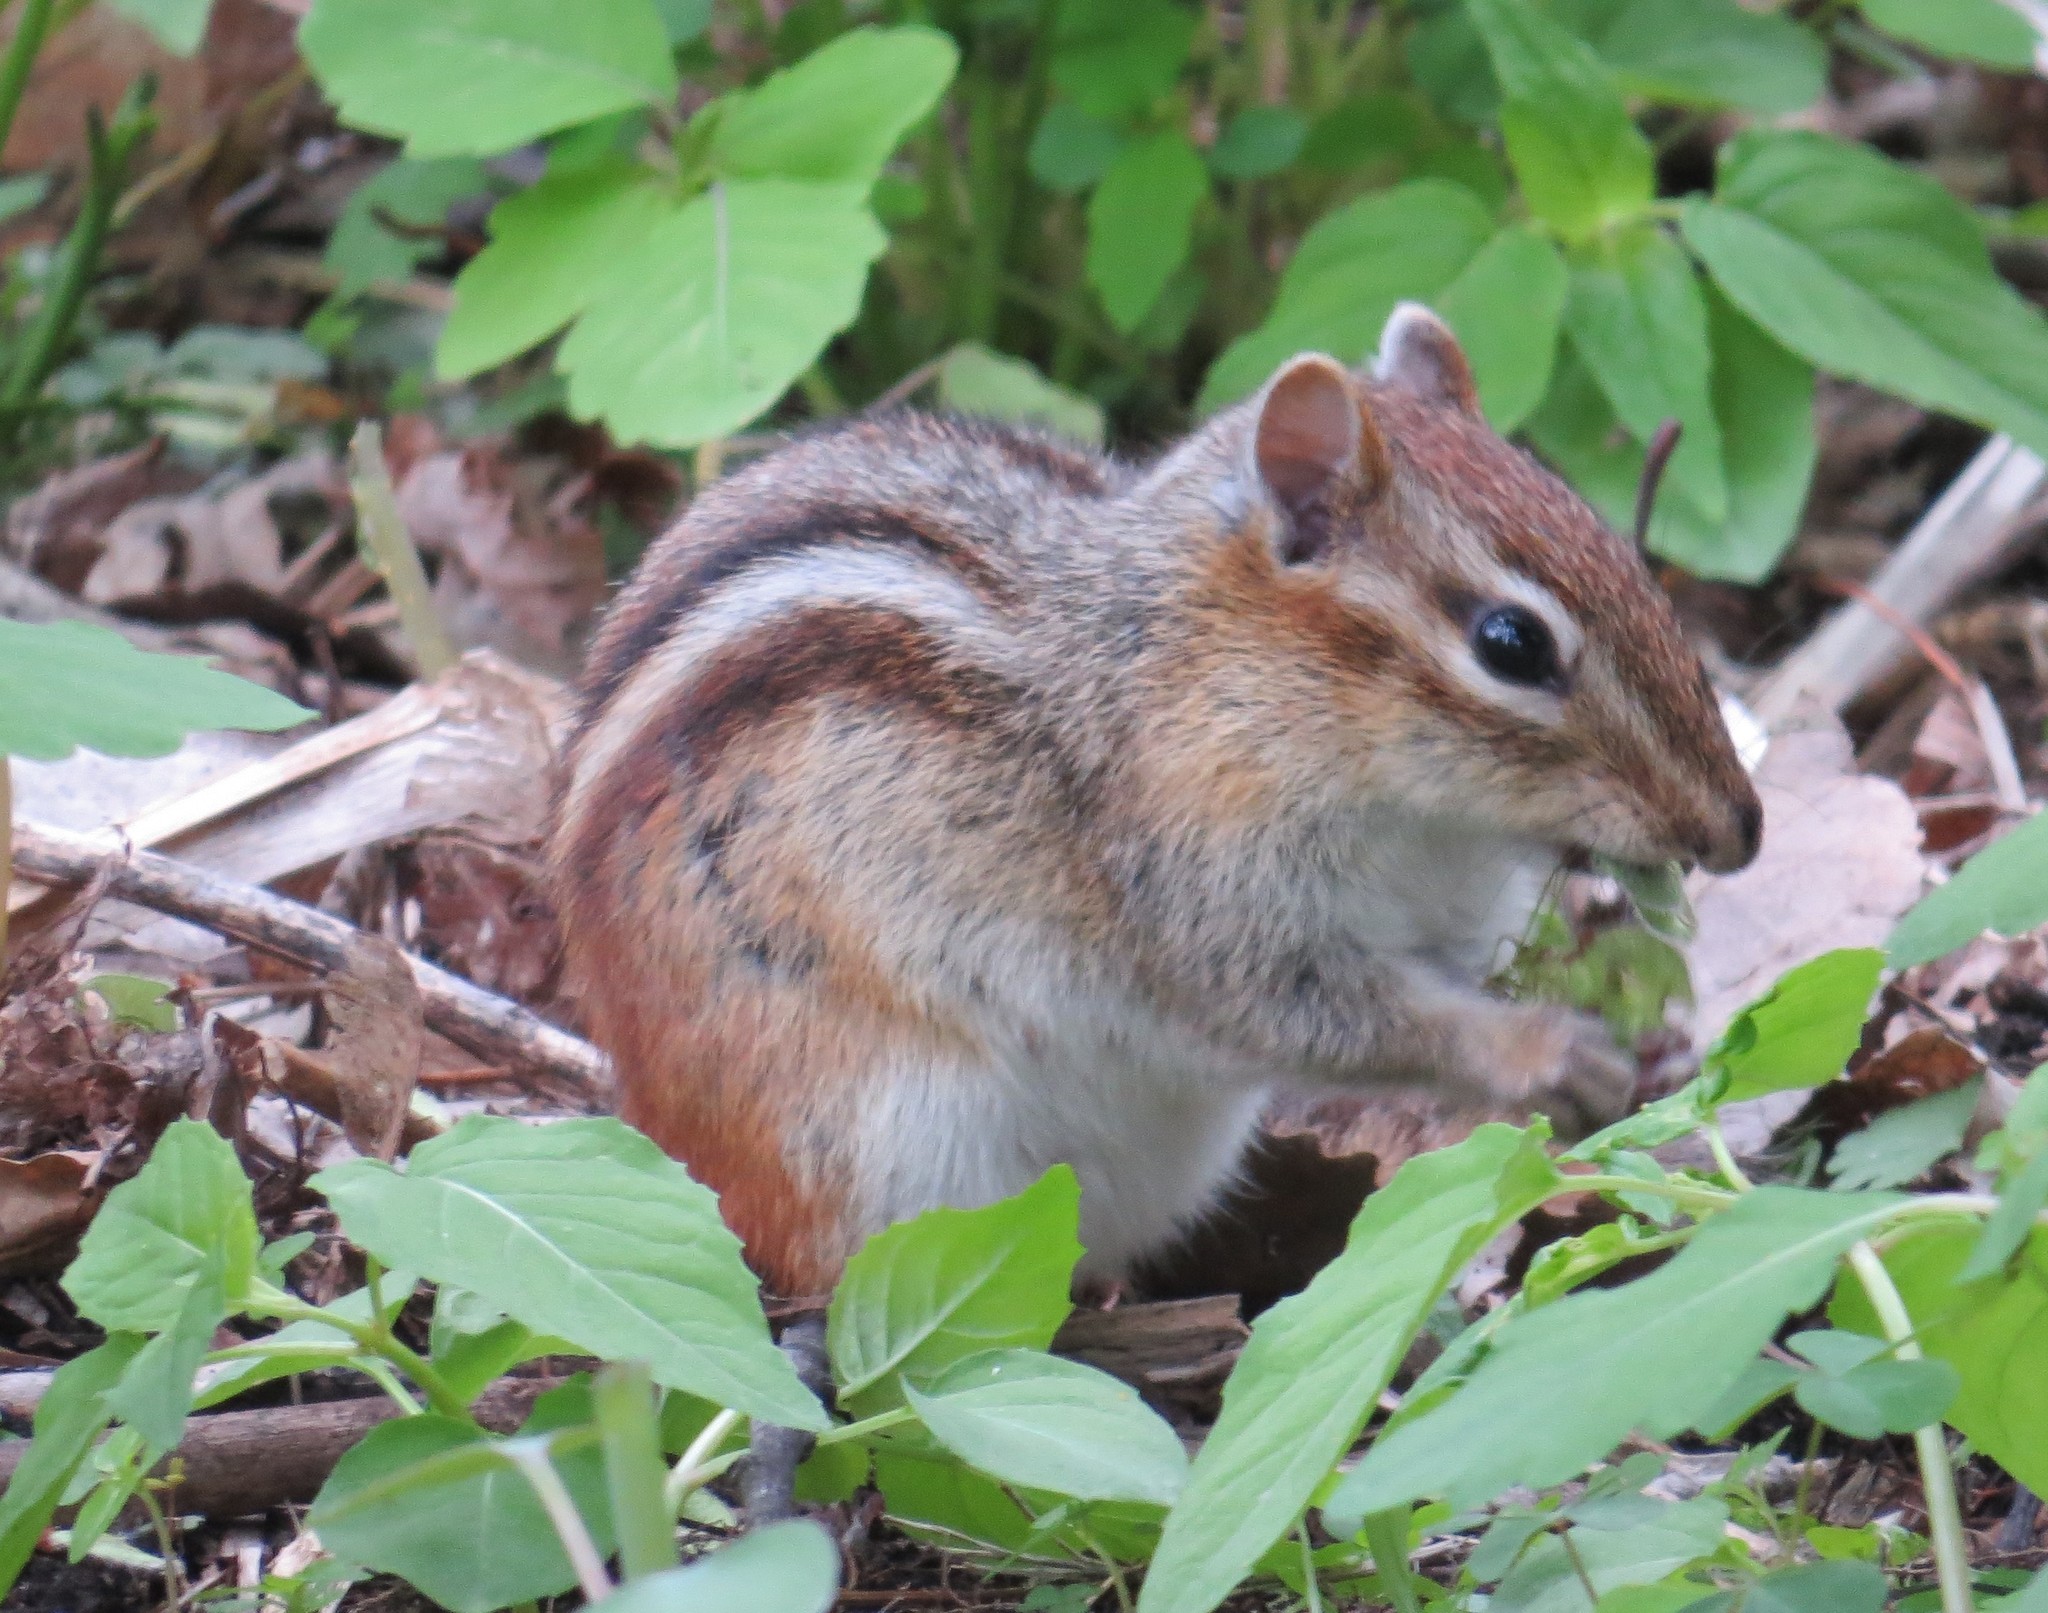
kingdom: Animalia
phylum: Chordata
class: Mammalia
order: Rodentia
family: Sciuridae
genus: Tamias
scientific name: Tamias striatus
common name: Eastern chipmunk
